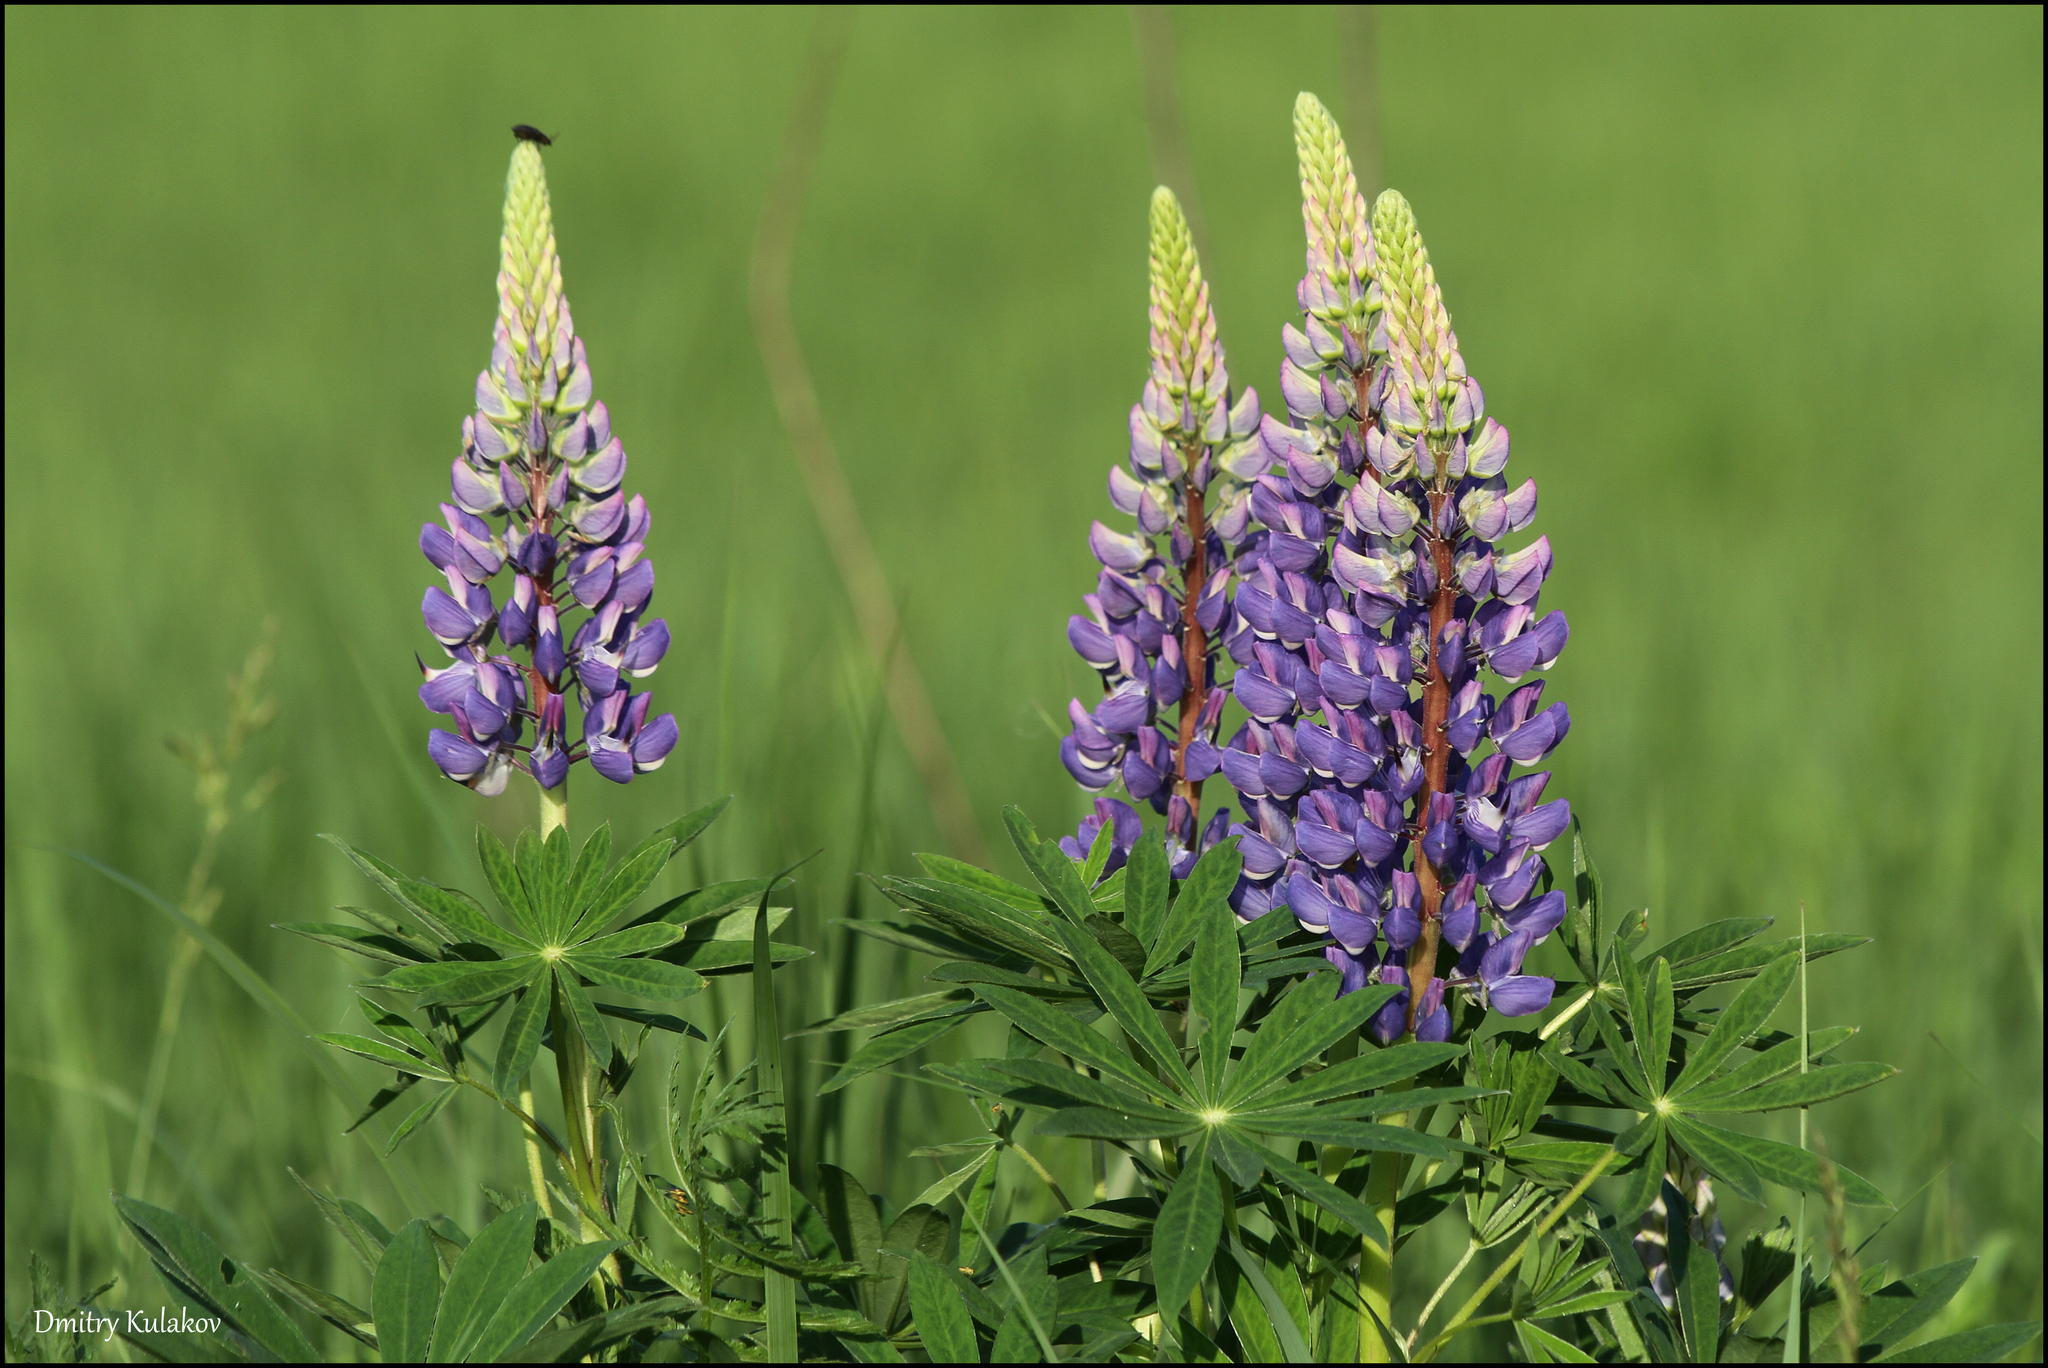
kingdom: Plantae
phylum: Tracheophyta
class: Magnoliopsida
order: Fabales
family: Fabaceae
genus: Lupinus
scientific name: Lupinus polyphyllus
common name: Garden lupin
